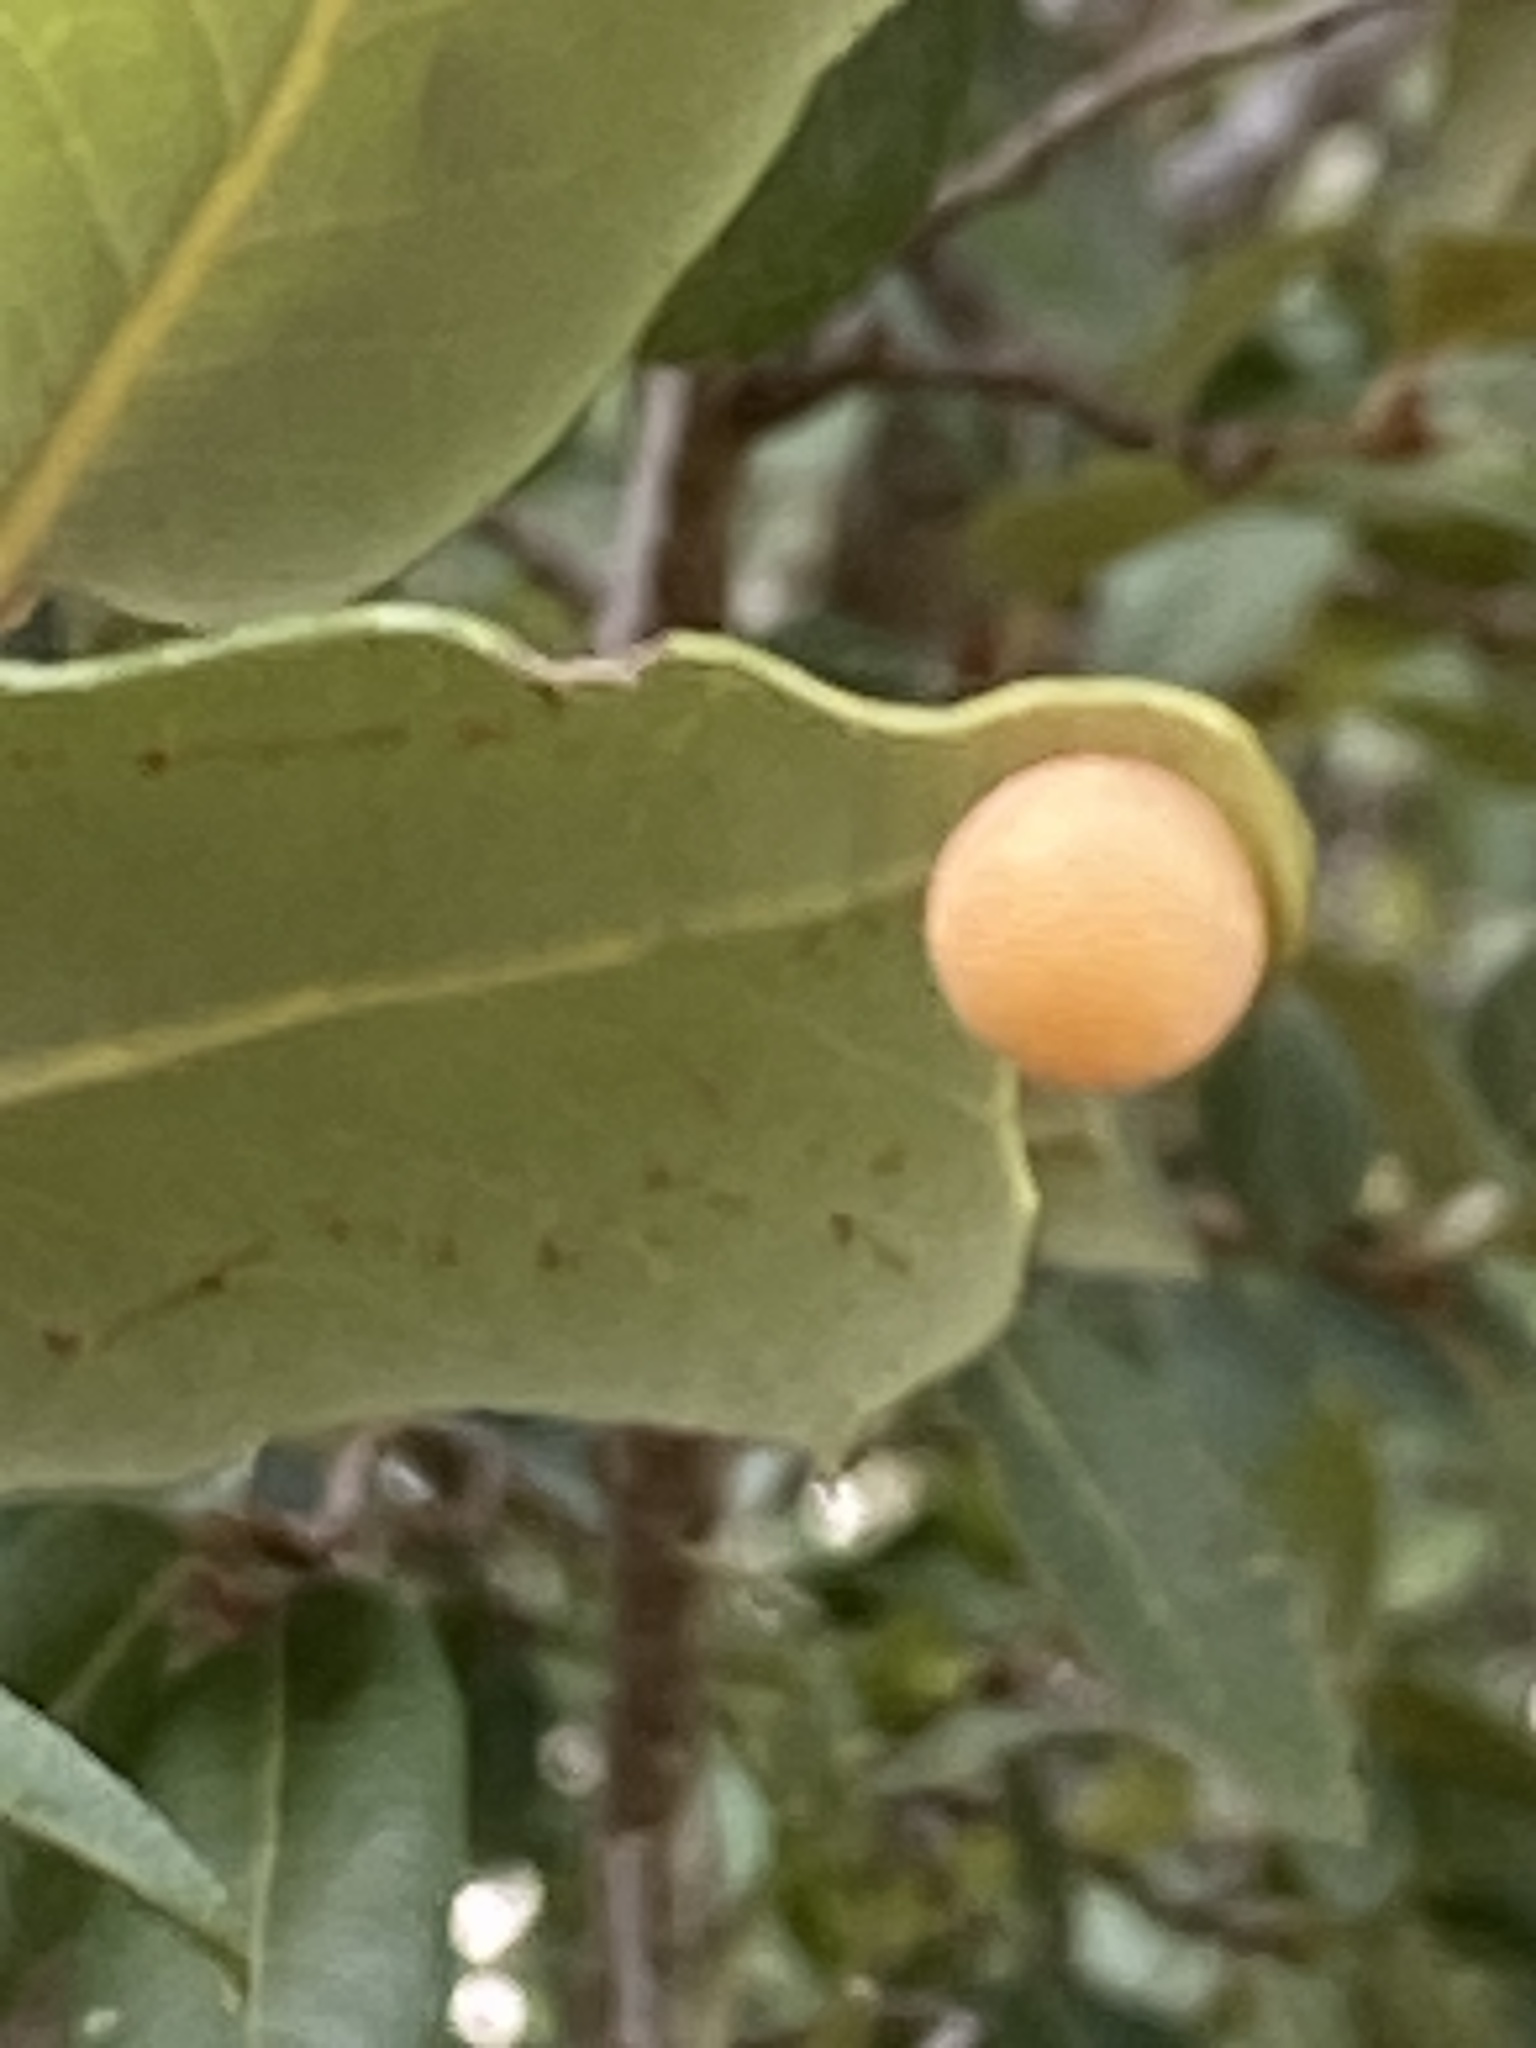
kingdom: Animalia
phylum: Arthropoda
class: Insecta
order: Hymenoptera
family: Cynipidae
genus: Belonocnema
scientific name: Belonocnema kinseyi
